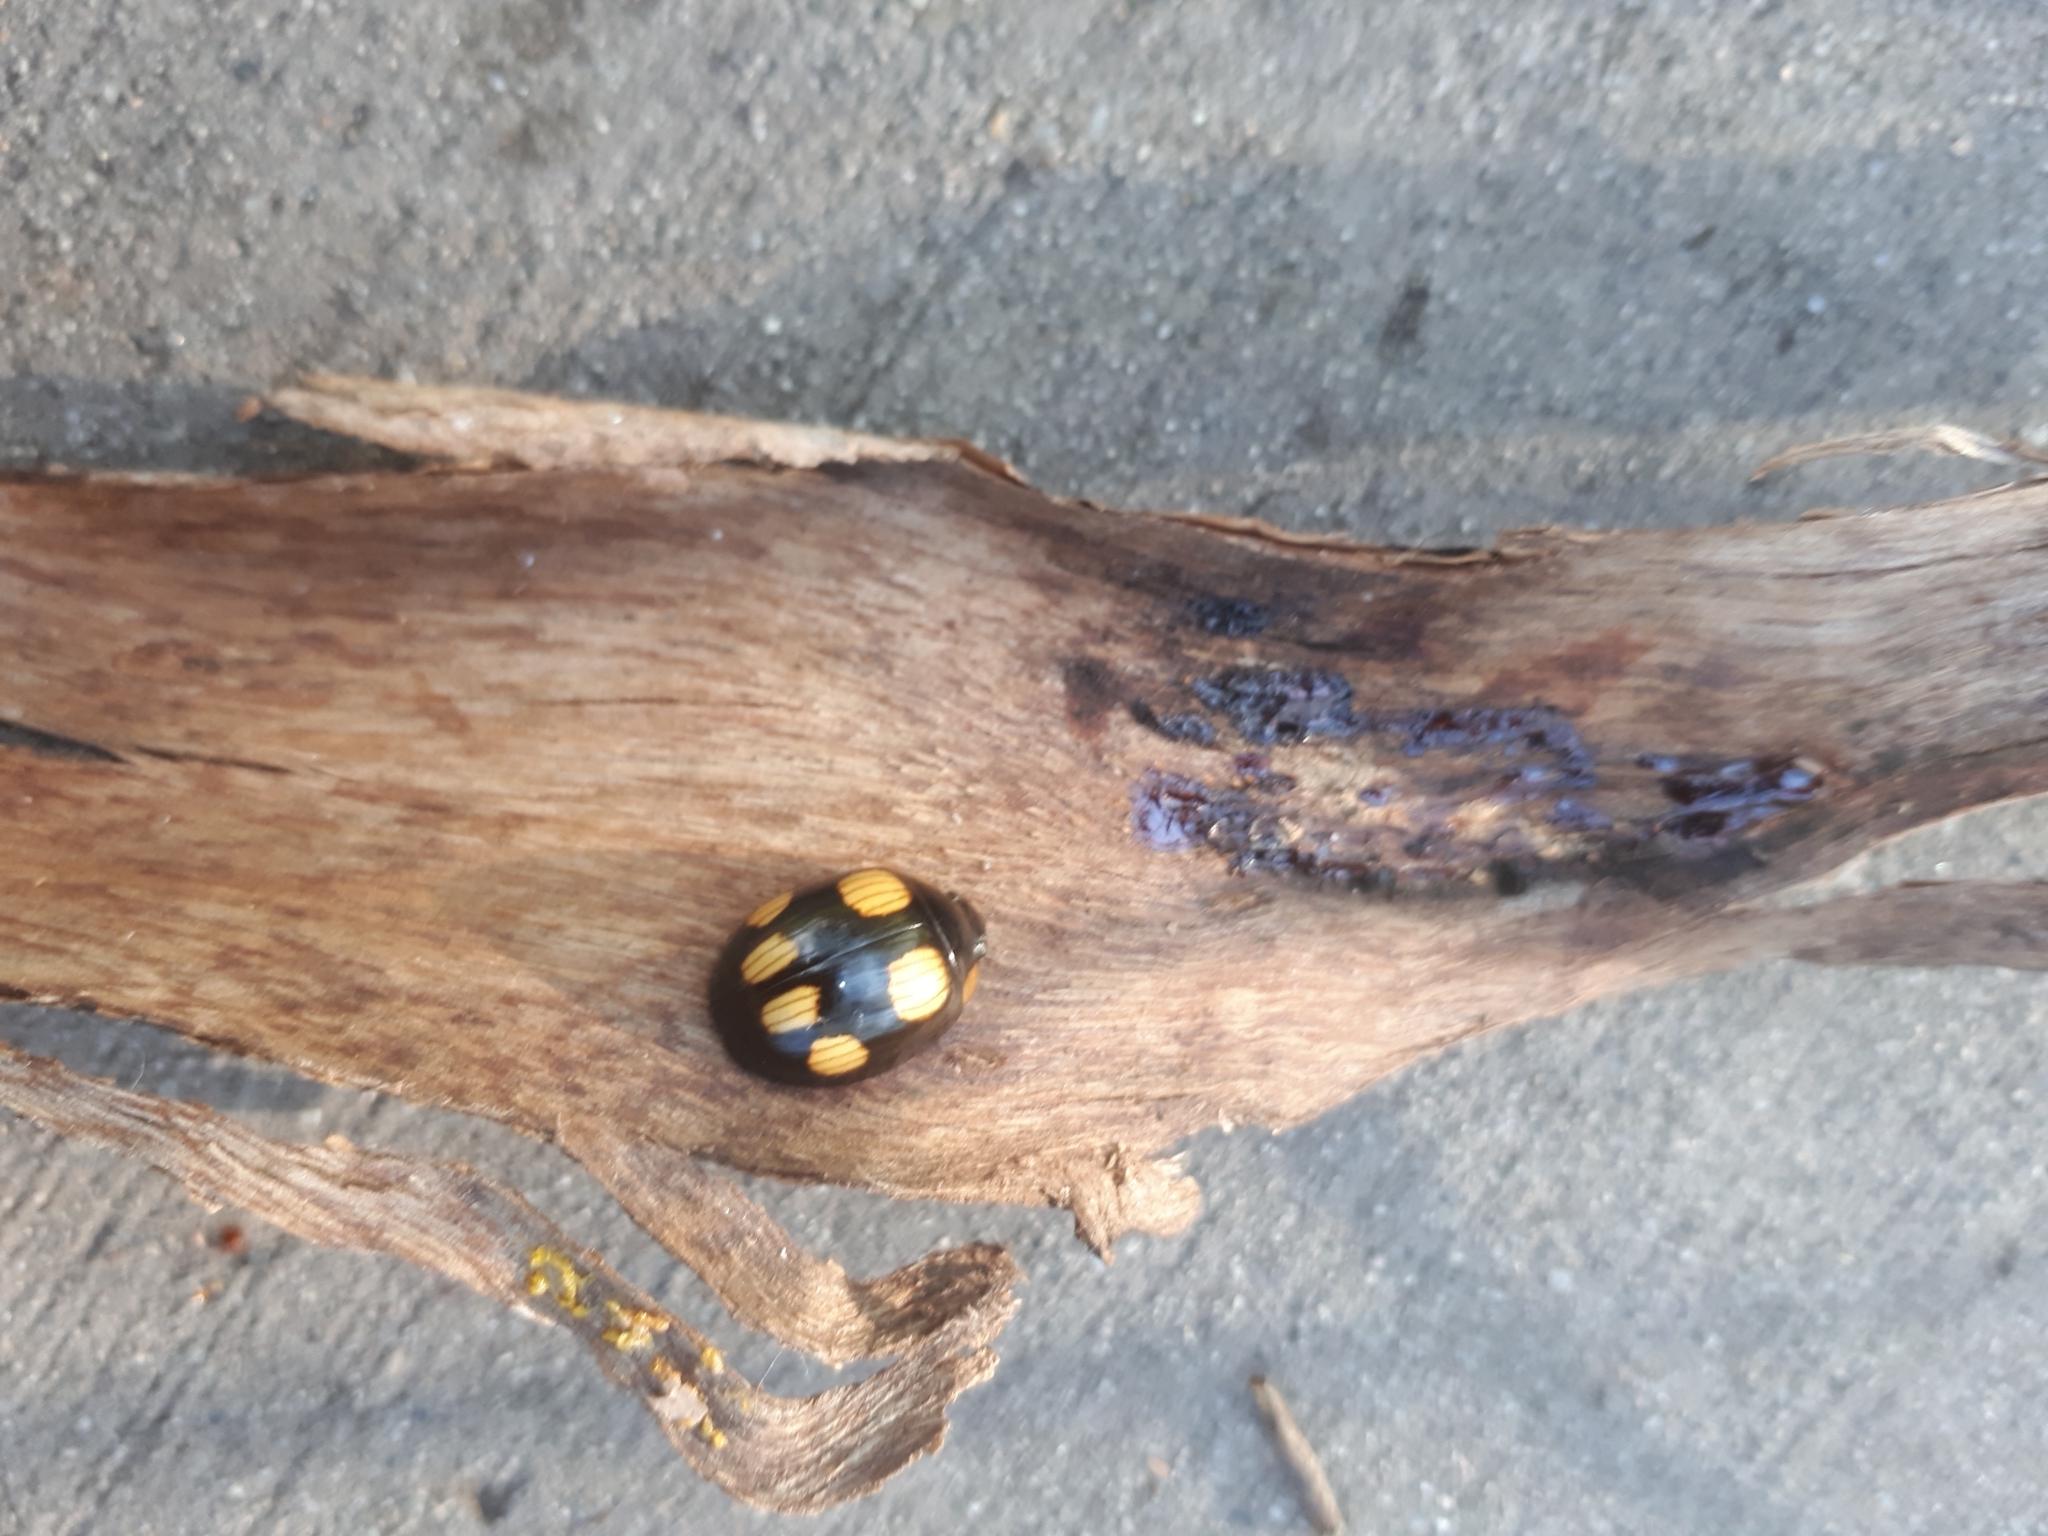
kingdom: Animalia
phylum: Arthropoda
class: Insecta
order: Coleoptera
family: Chrysomelidae
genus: Paropsisterna
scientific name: Paropsisterna
